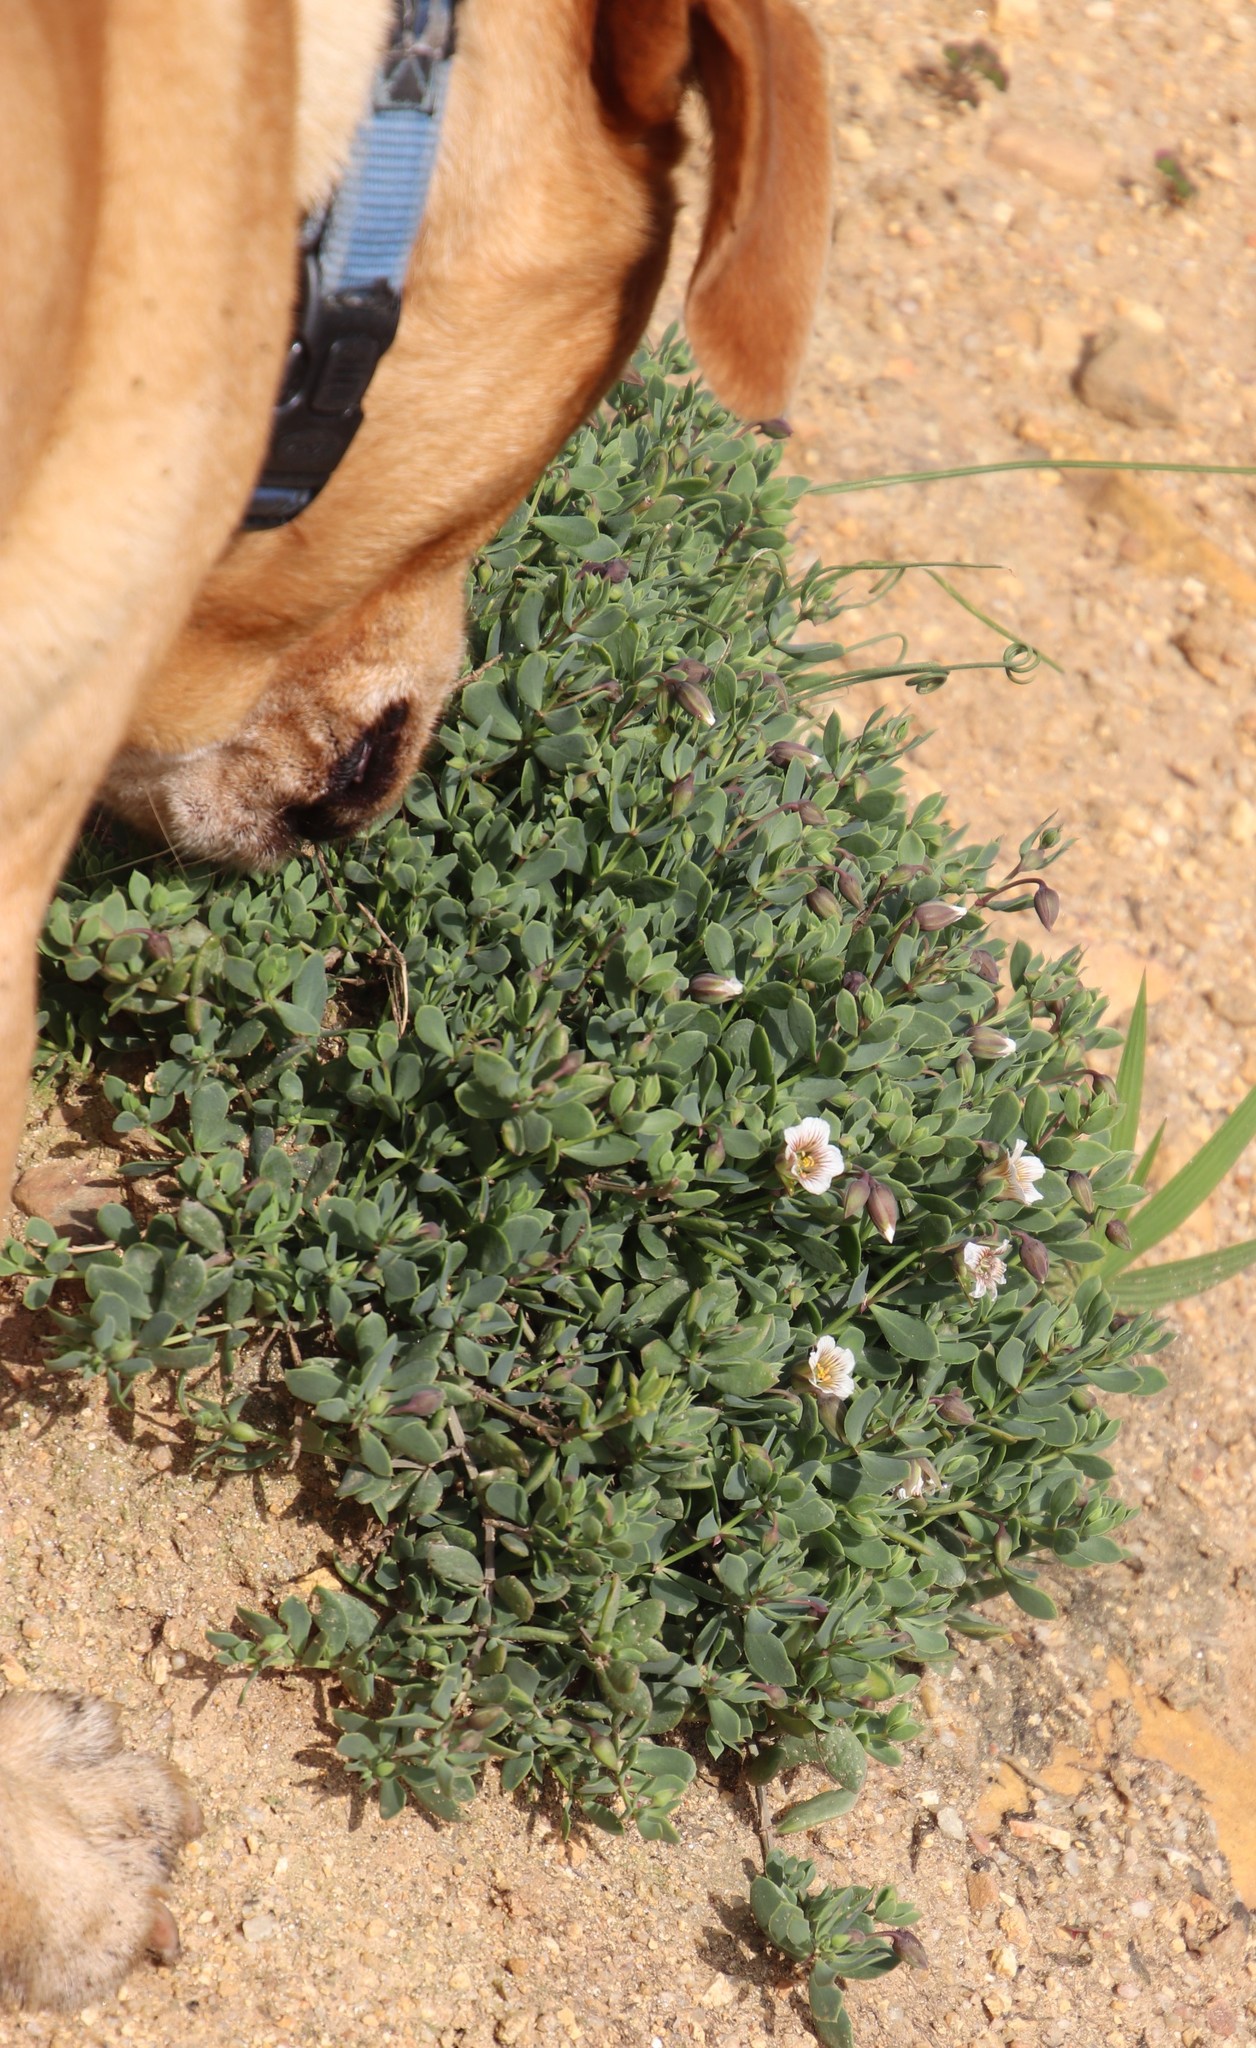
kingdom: Plantae
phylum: Tracheophyta
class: Magnoliopsida
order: Zygophyllales
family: Zygophyllaceae
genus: Roepera
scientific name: Roepera sessilifolia
